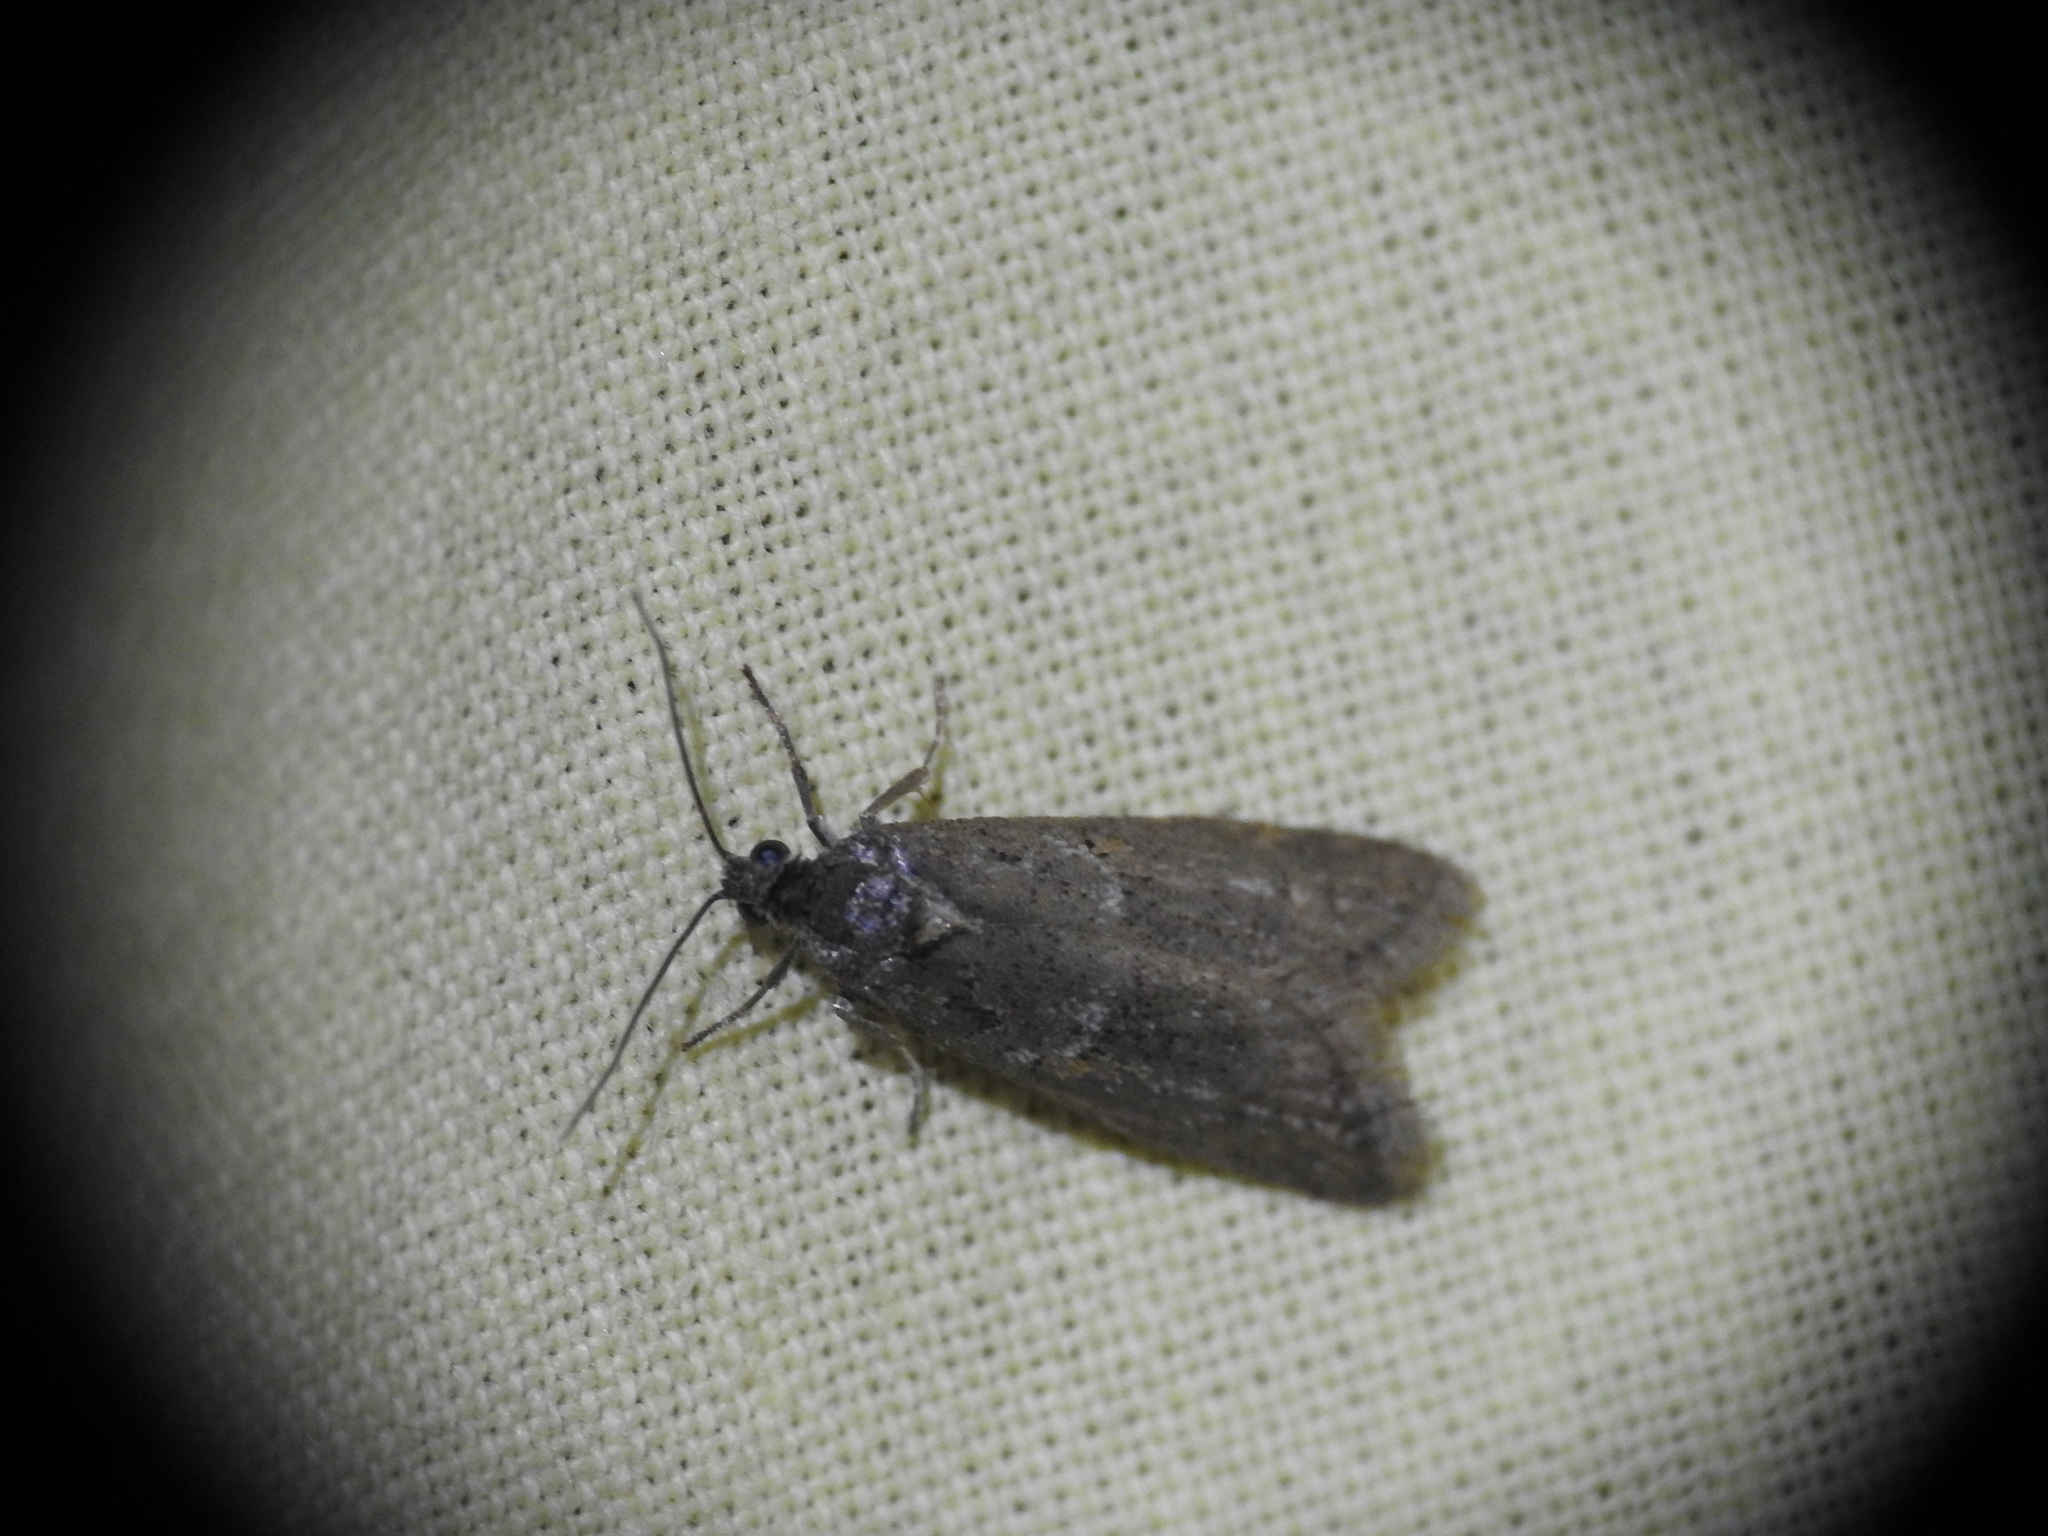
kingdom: Animalia
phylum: Arthropoda
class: Insecta
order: Lepidoptera
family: Lypusidae
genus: Diurnea
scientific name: Diurnea fagella
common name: March tubic
